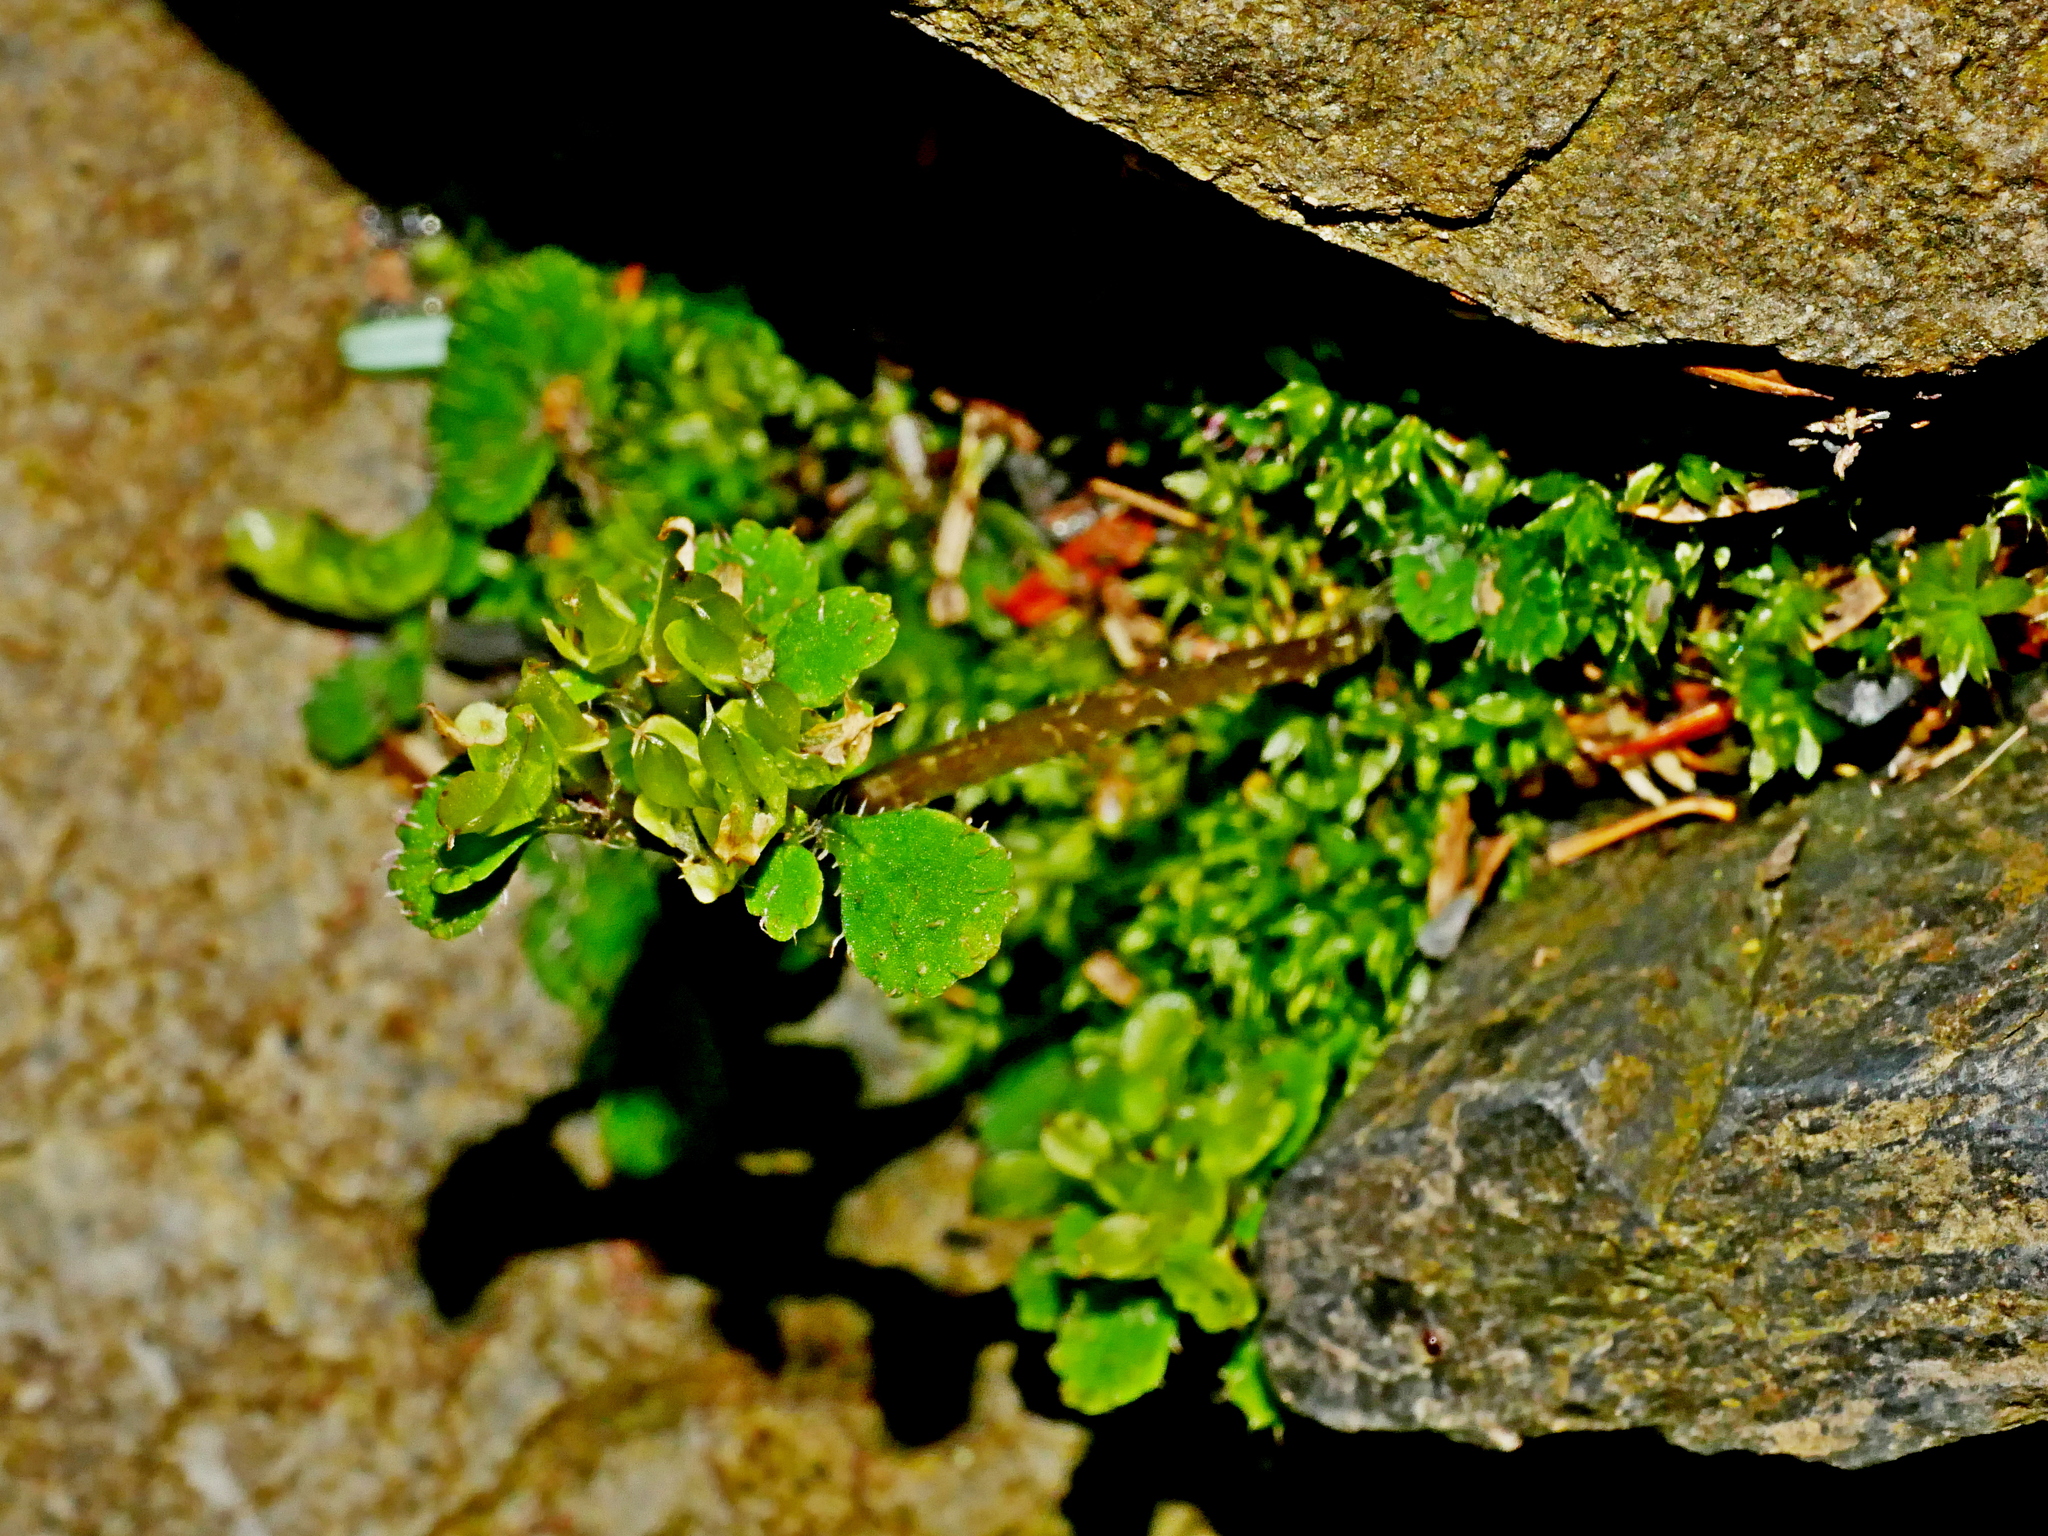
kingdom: Plantae
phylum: Tracheophyta
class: Magnoliopsida
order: Saxifragales
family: Saxifragaceae
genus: Chrysosplenium
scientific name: Chrysosplenium hebetatum
